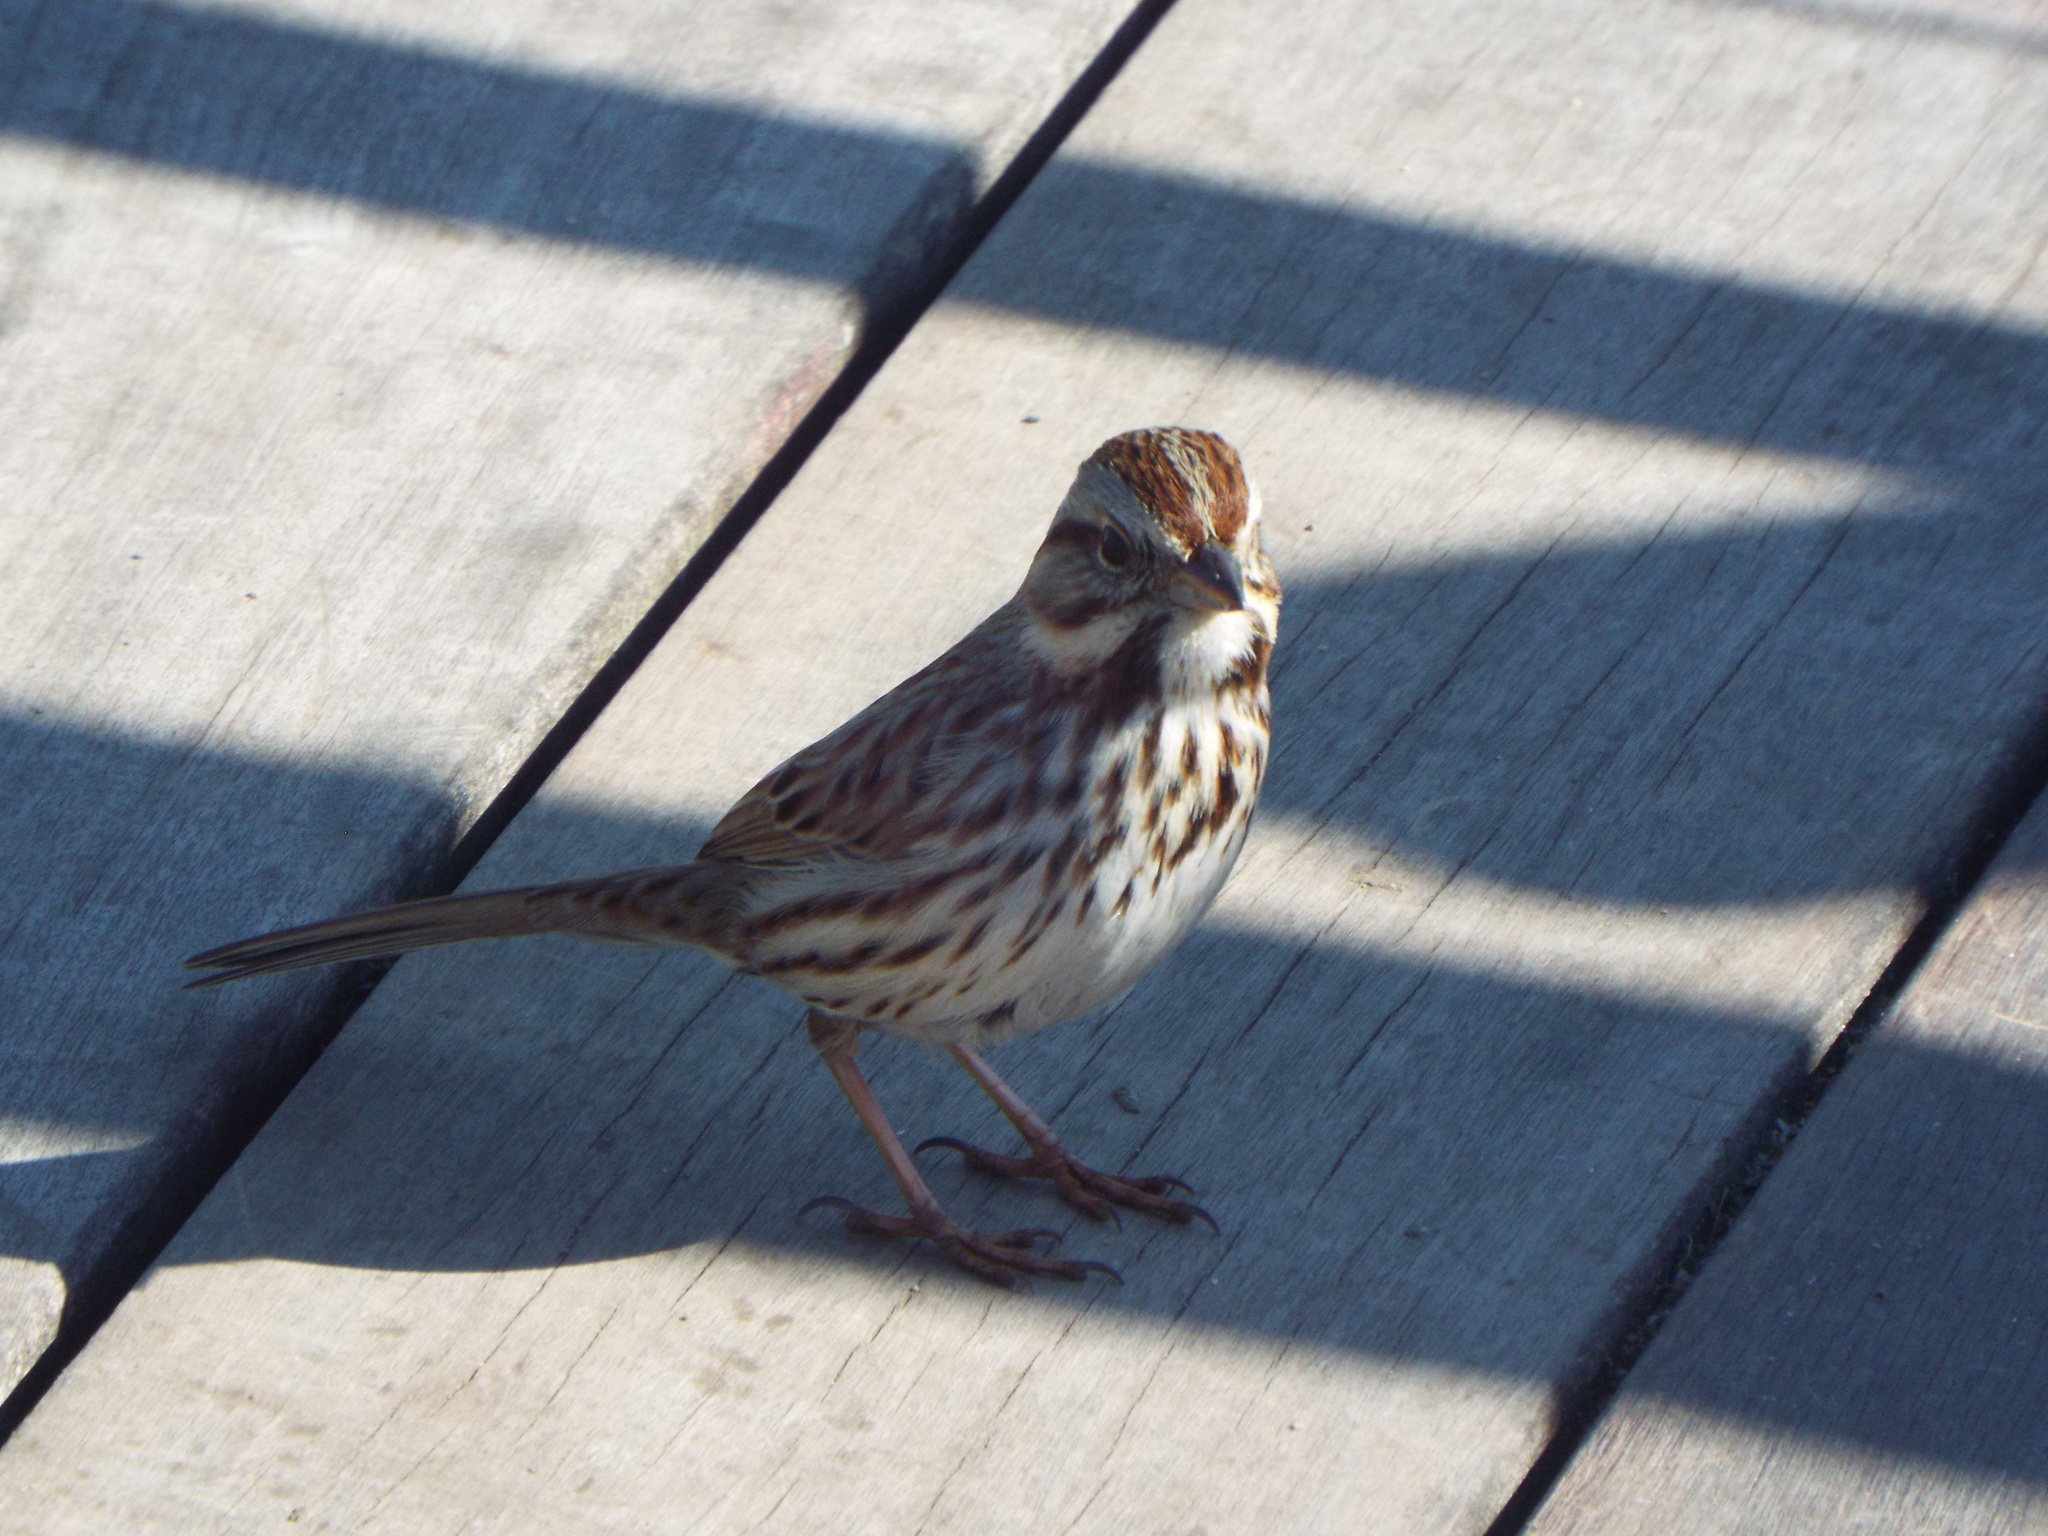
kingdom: Animalia
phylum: Chordata
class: Aves
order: Passeriformes
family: Passerellidae
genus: Melospiza
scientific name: Melospiza melodia
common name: Song sparrow
